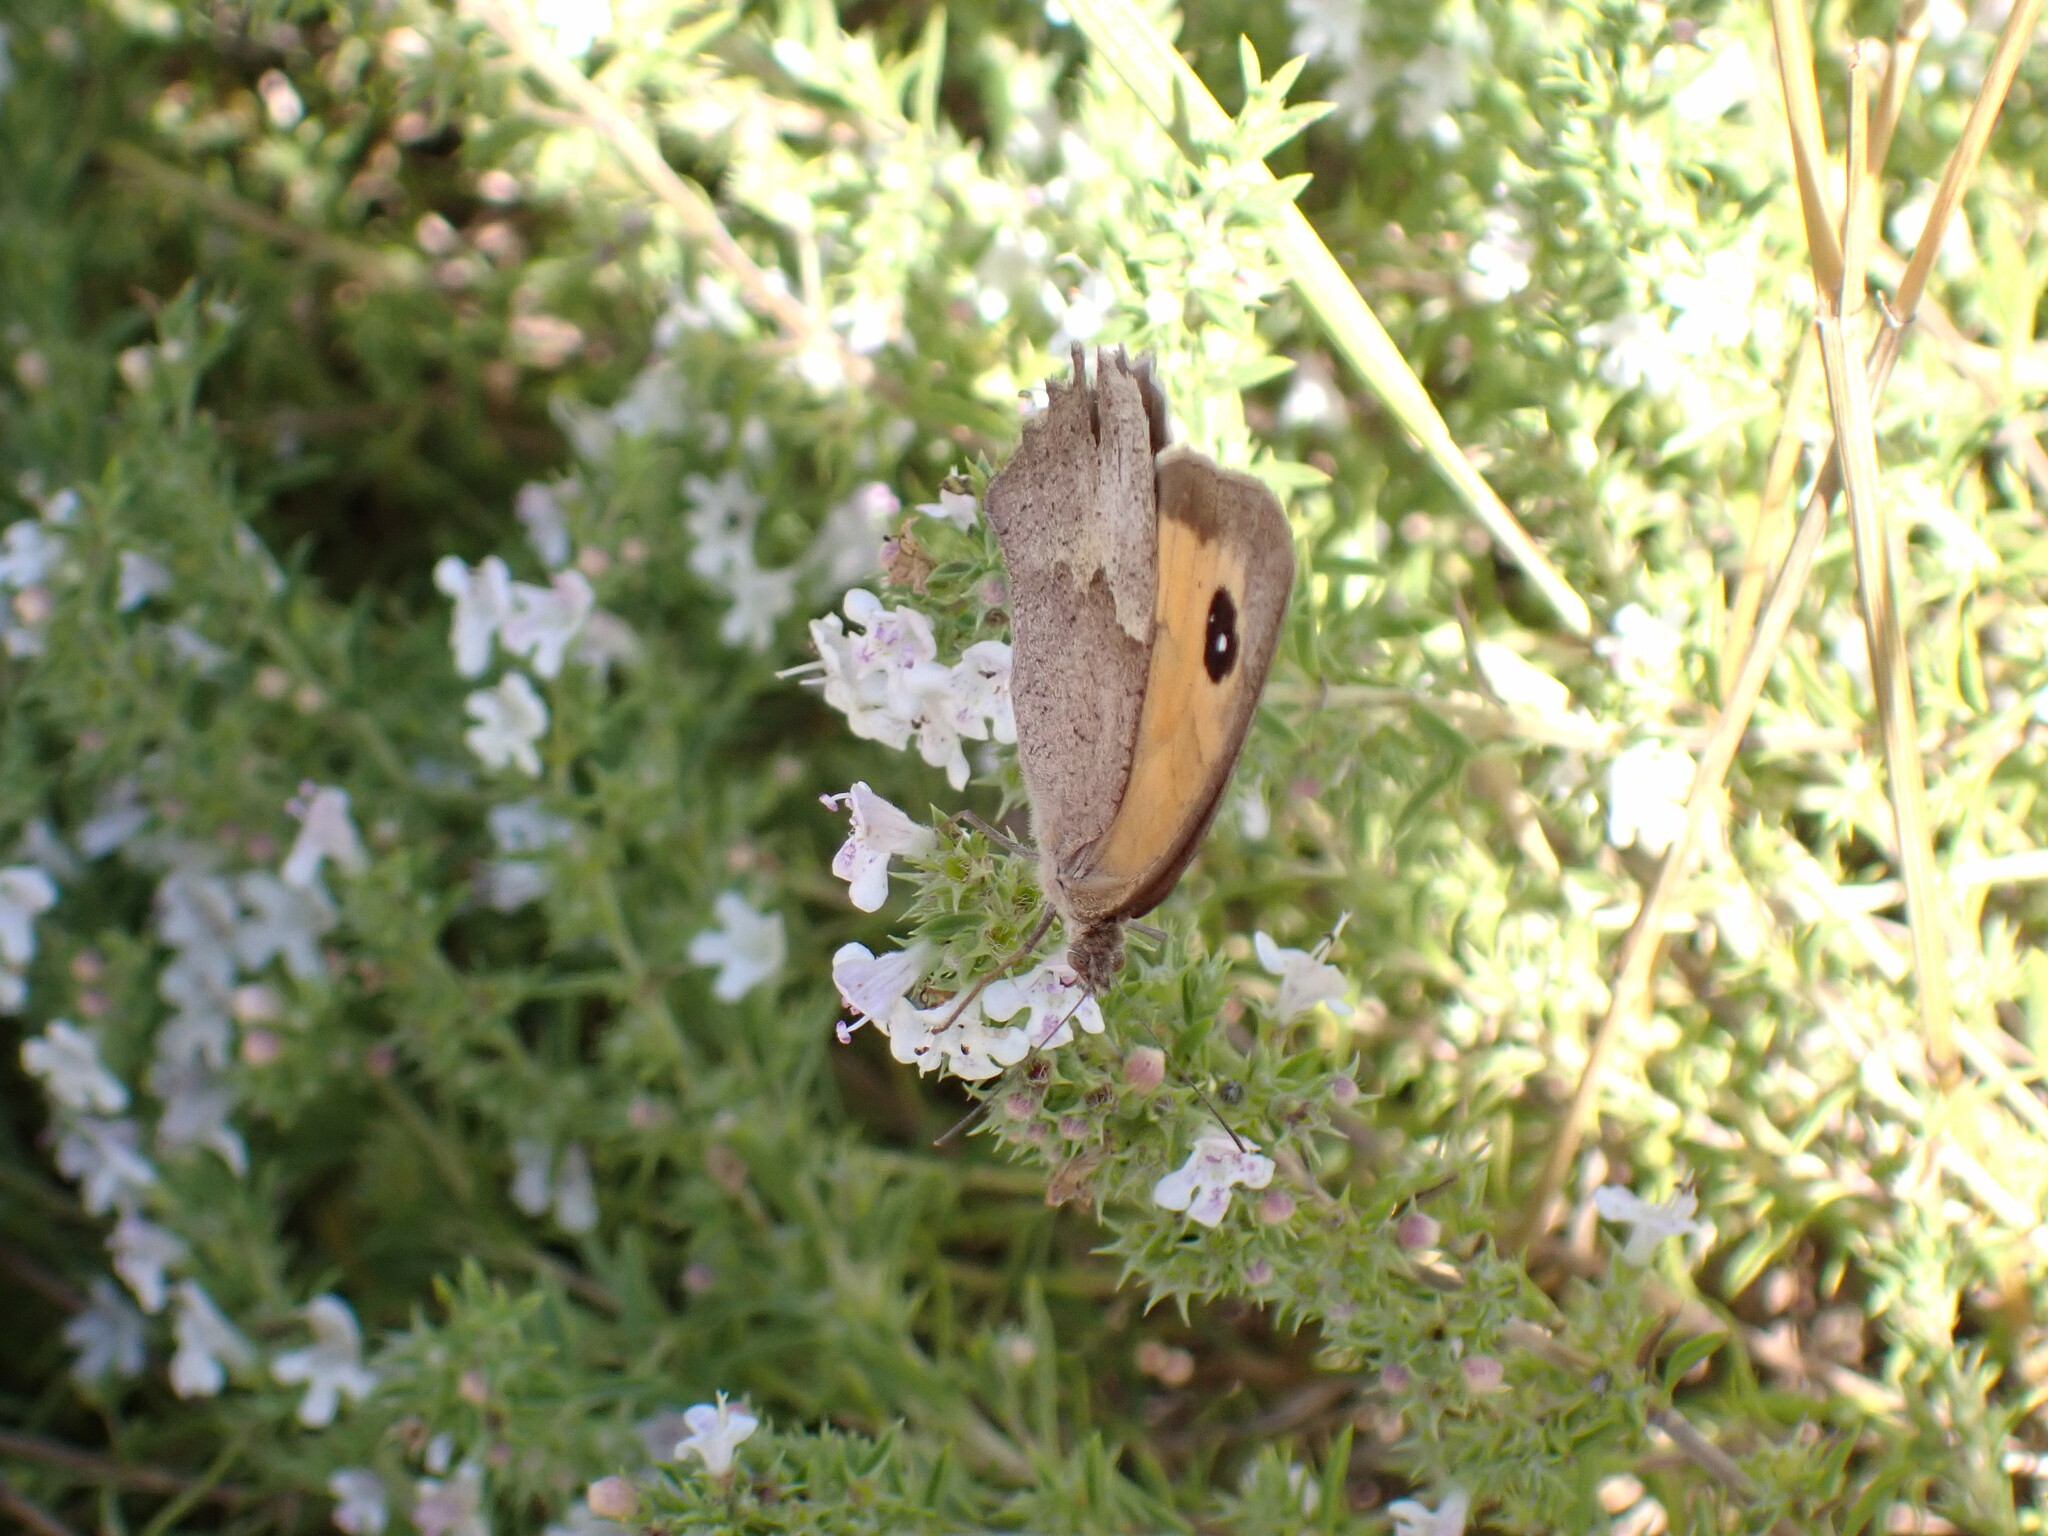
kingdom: Animalia
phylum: Arthropoda
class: Insecta
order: Lepidoptera
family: Nymphalidae
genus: Maniola
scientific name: Maniola jurtina
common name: Meadow brown
